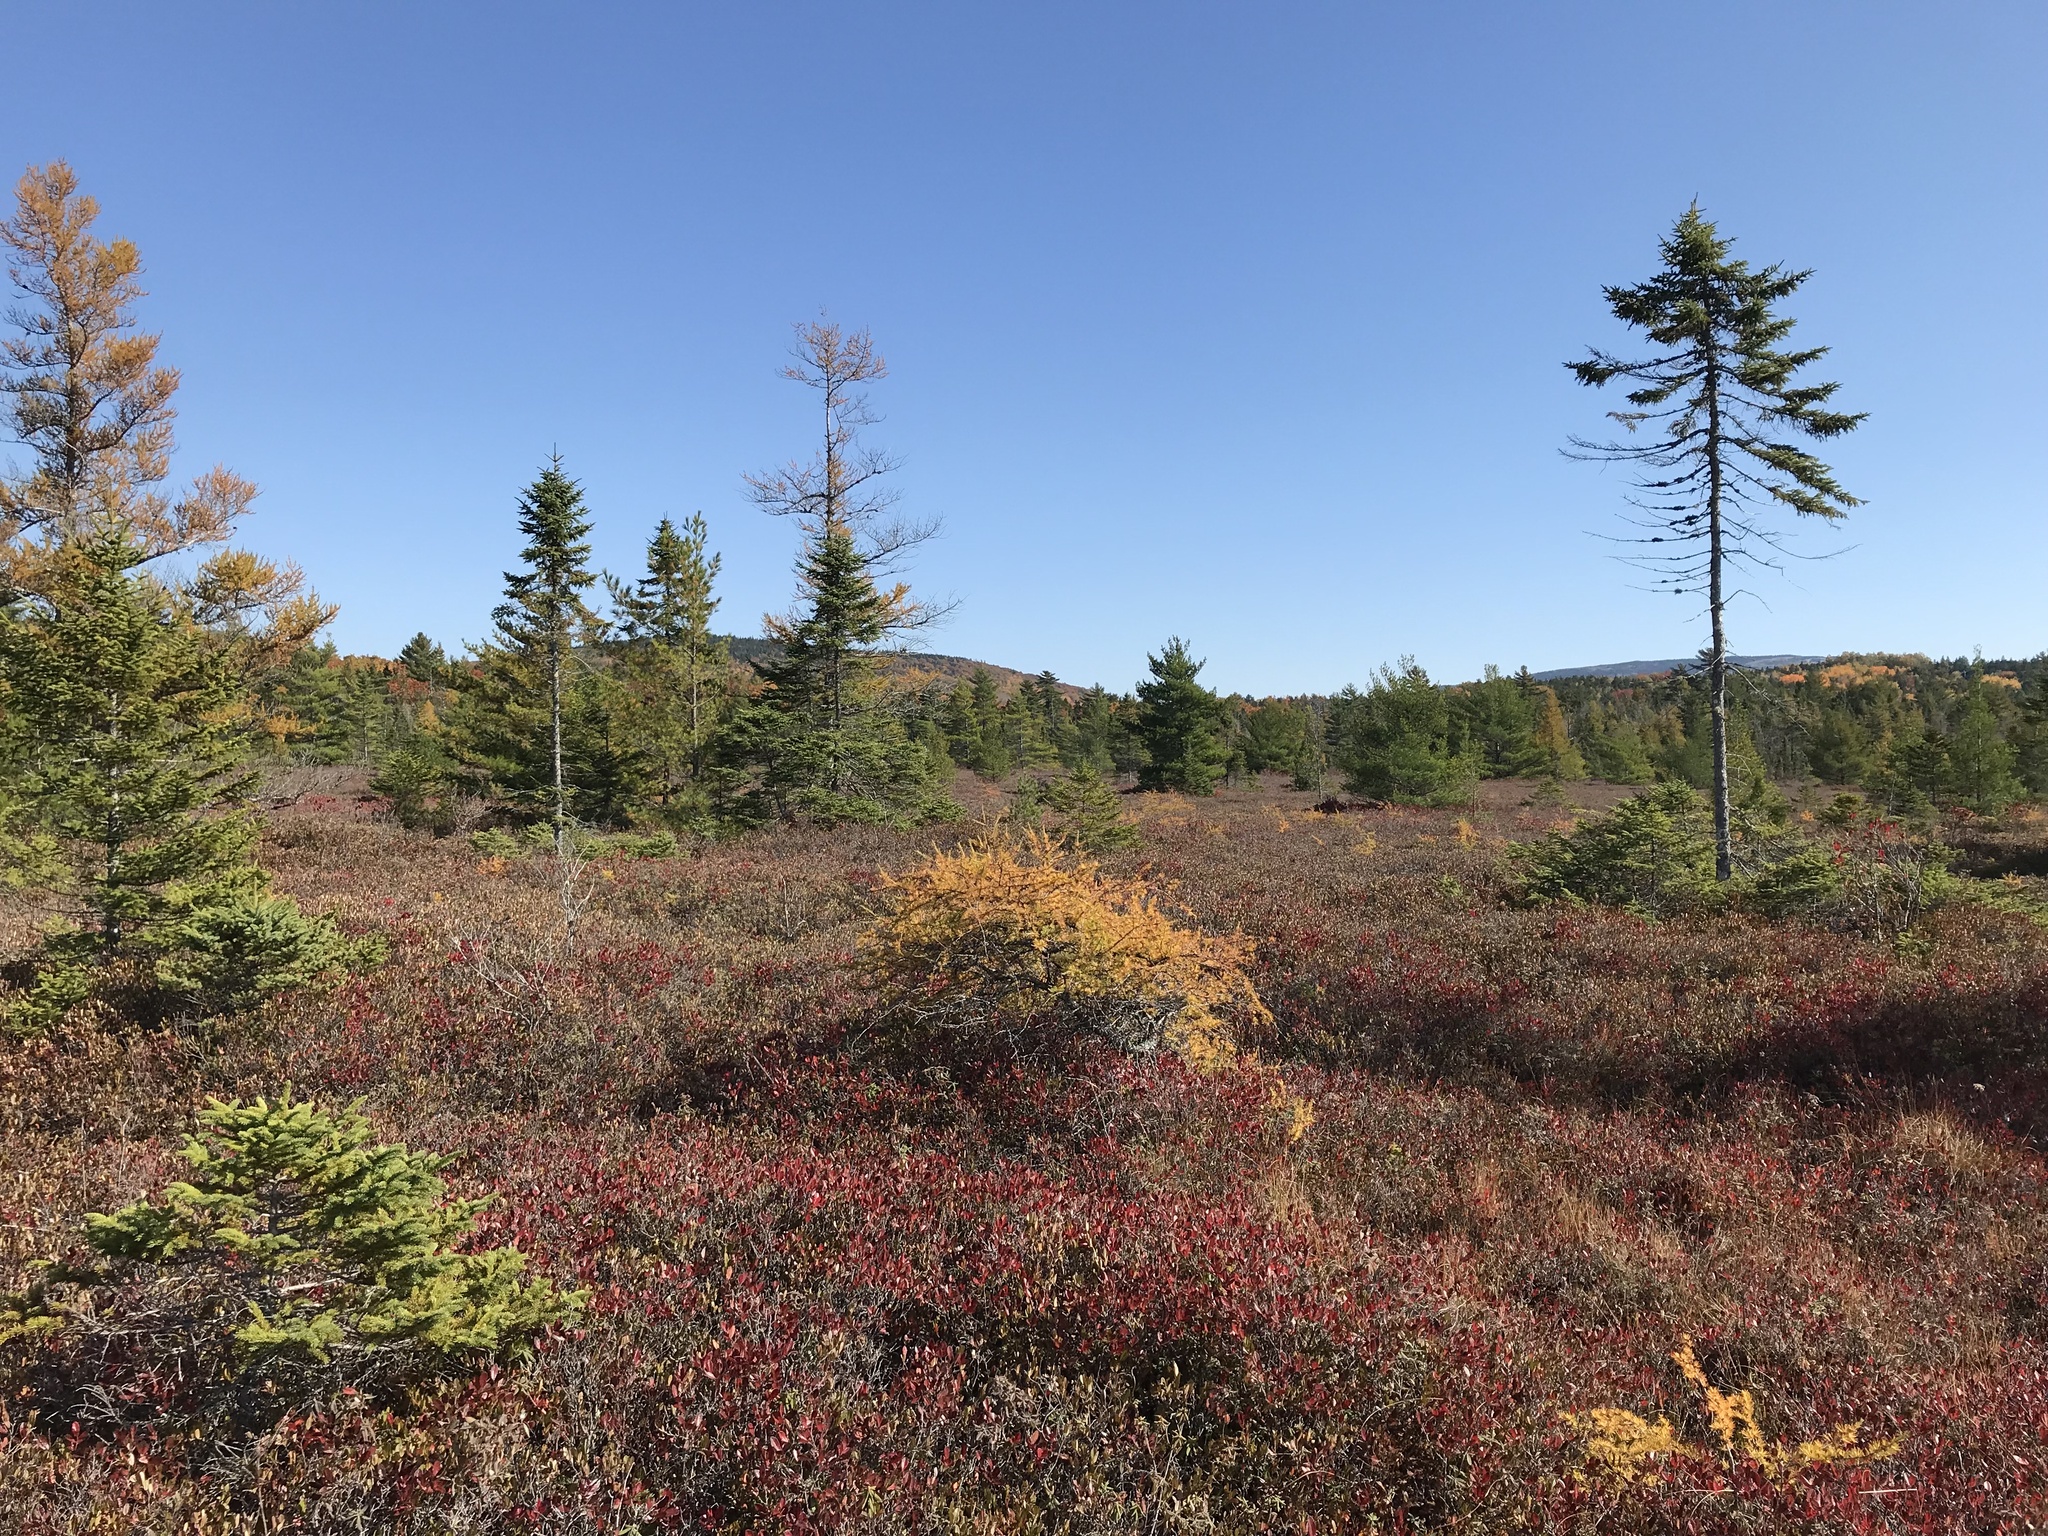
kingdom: Plantae
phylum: Tracheophyta
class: Pinopsida
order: Pinales
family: Pinaceae
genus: Larix
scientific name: Larix laricina
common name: American larch
